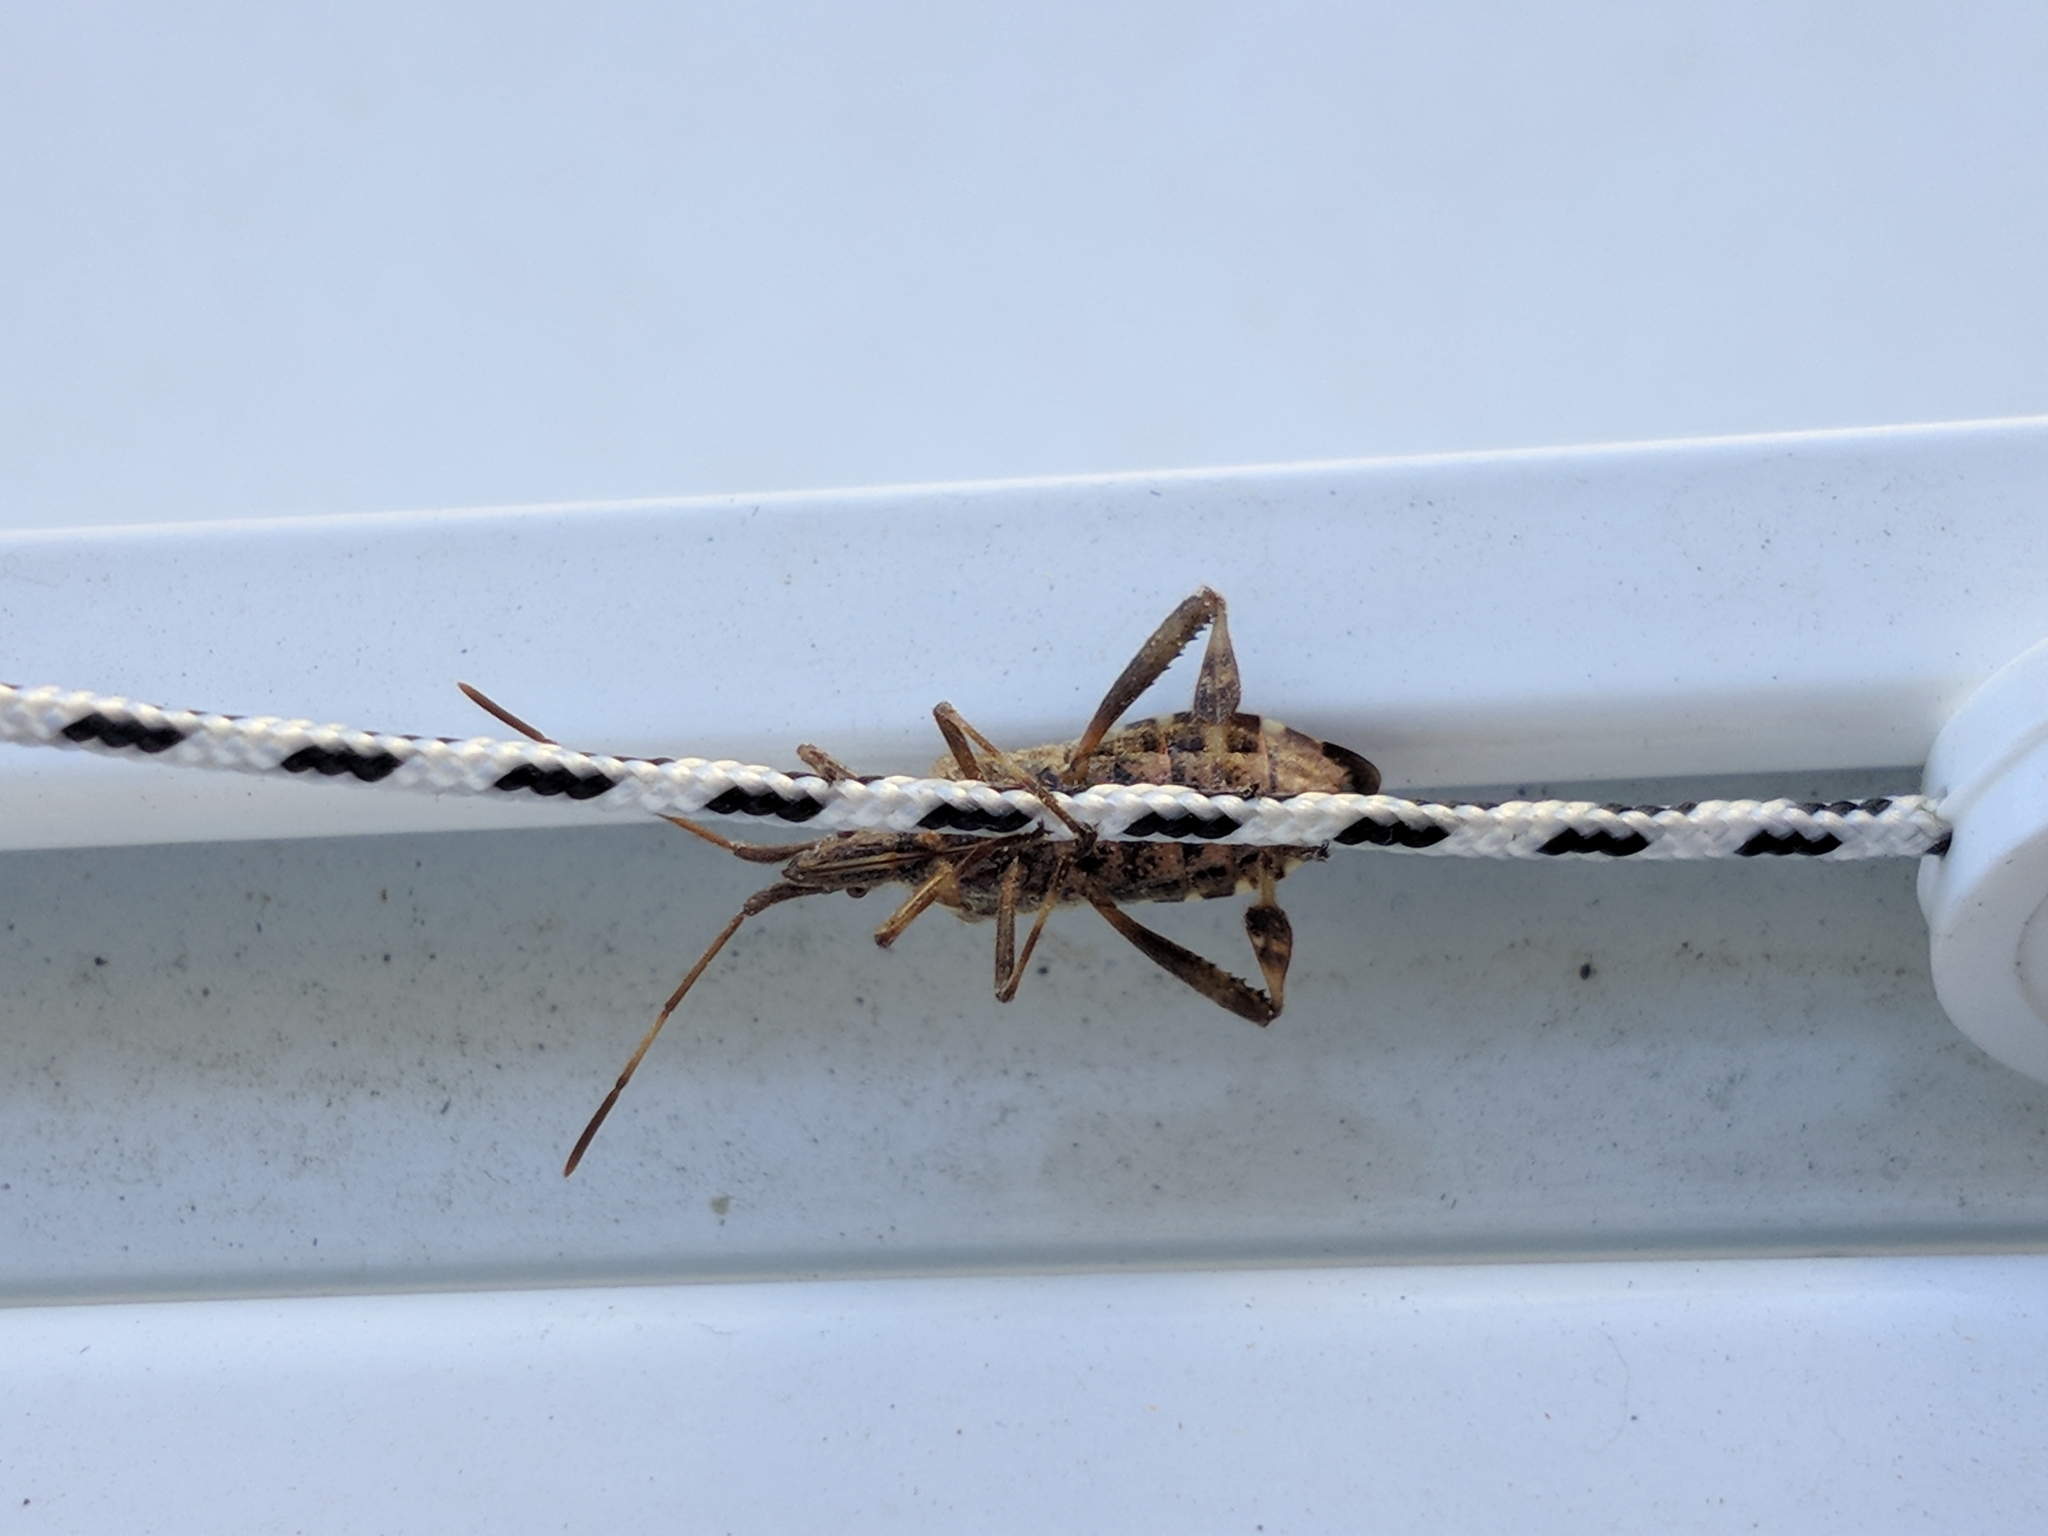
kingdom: Animalia
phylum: Arthropoda
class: Insecta
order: Hemiptera
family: Coreidae
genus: Leptoglossus
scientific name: Leptoglossus occidentalis
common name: Western conifer-seed bug
